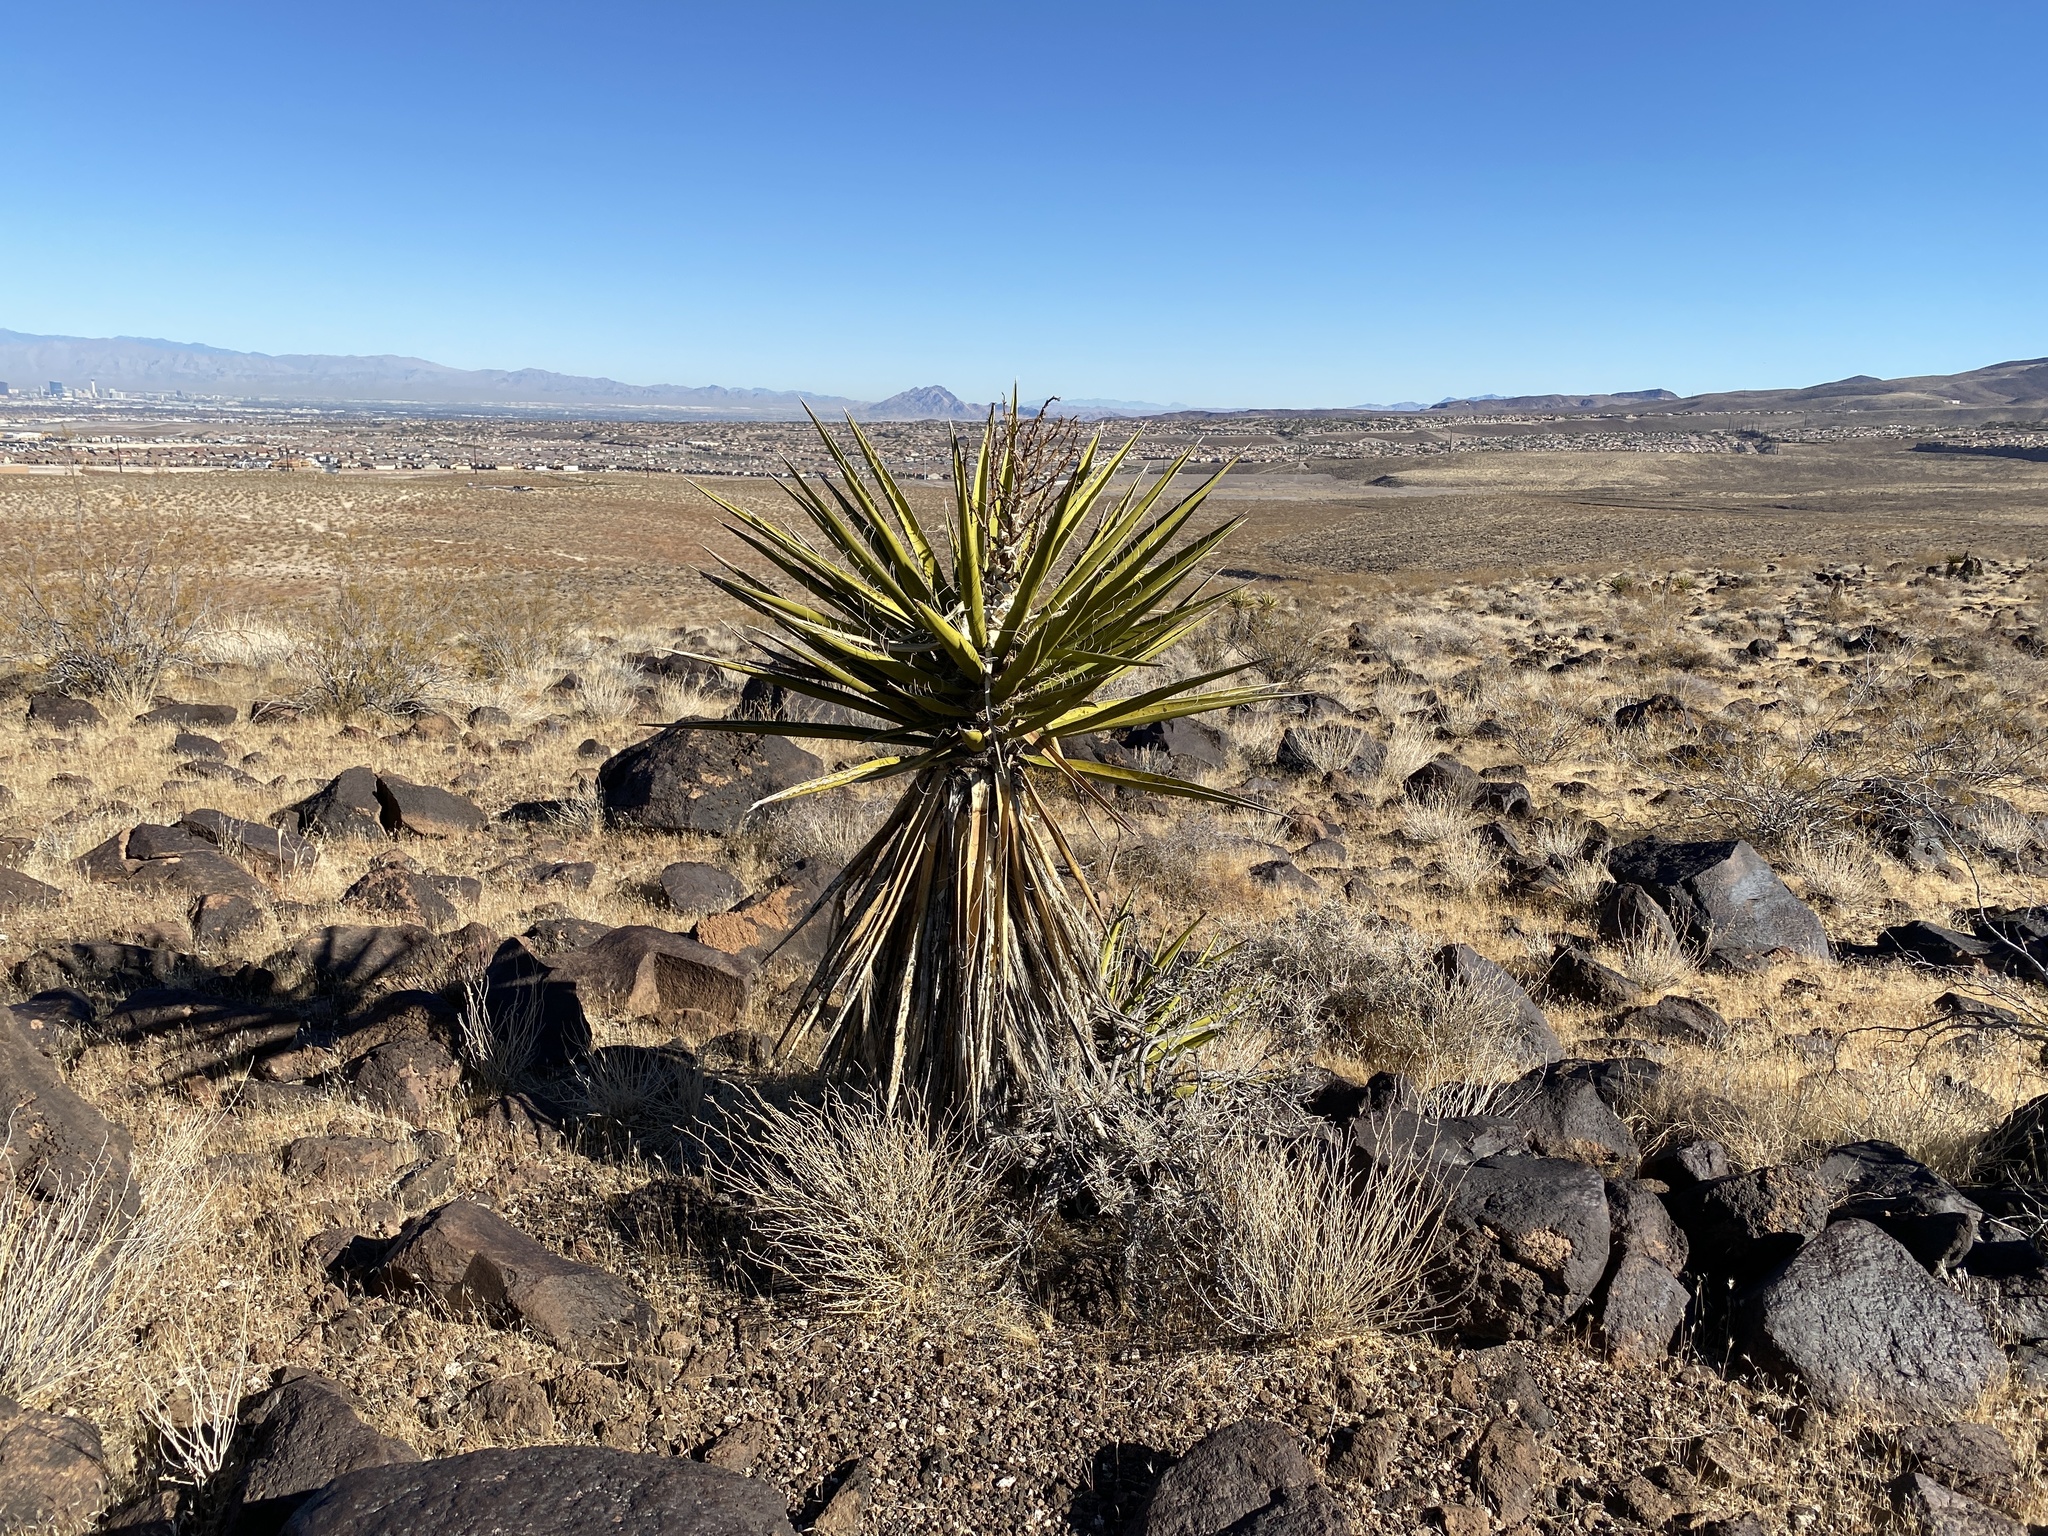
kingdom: Plantae
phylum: Tracheophyta
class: Liliopsida
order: Asparagales
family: Asparagaceae
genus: Yucca
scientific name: Yucca schidigera
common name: Mojave yucca
